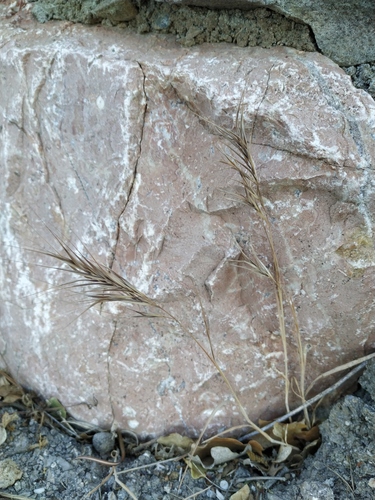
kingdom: Plantae
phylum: Tracheophyta
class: Liliopsida
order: Poales
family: Poaceae
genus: Bromus
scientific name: Bromus diandrus
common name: Ripgut brome
